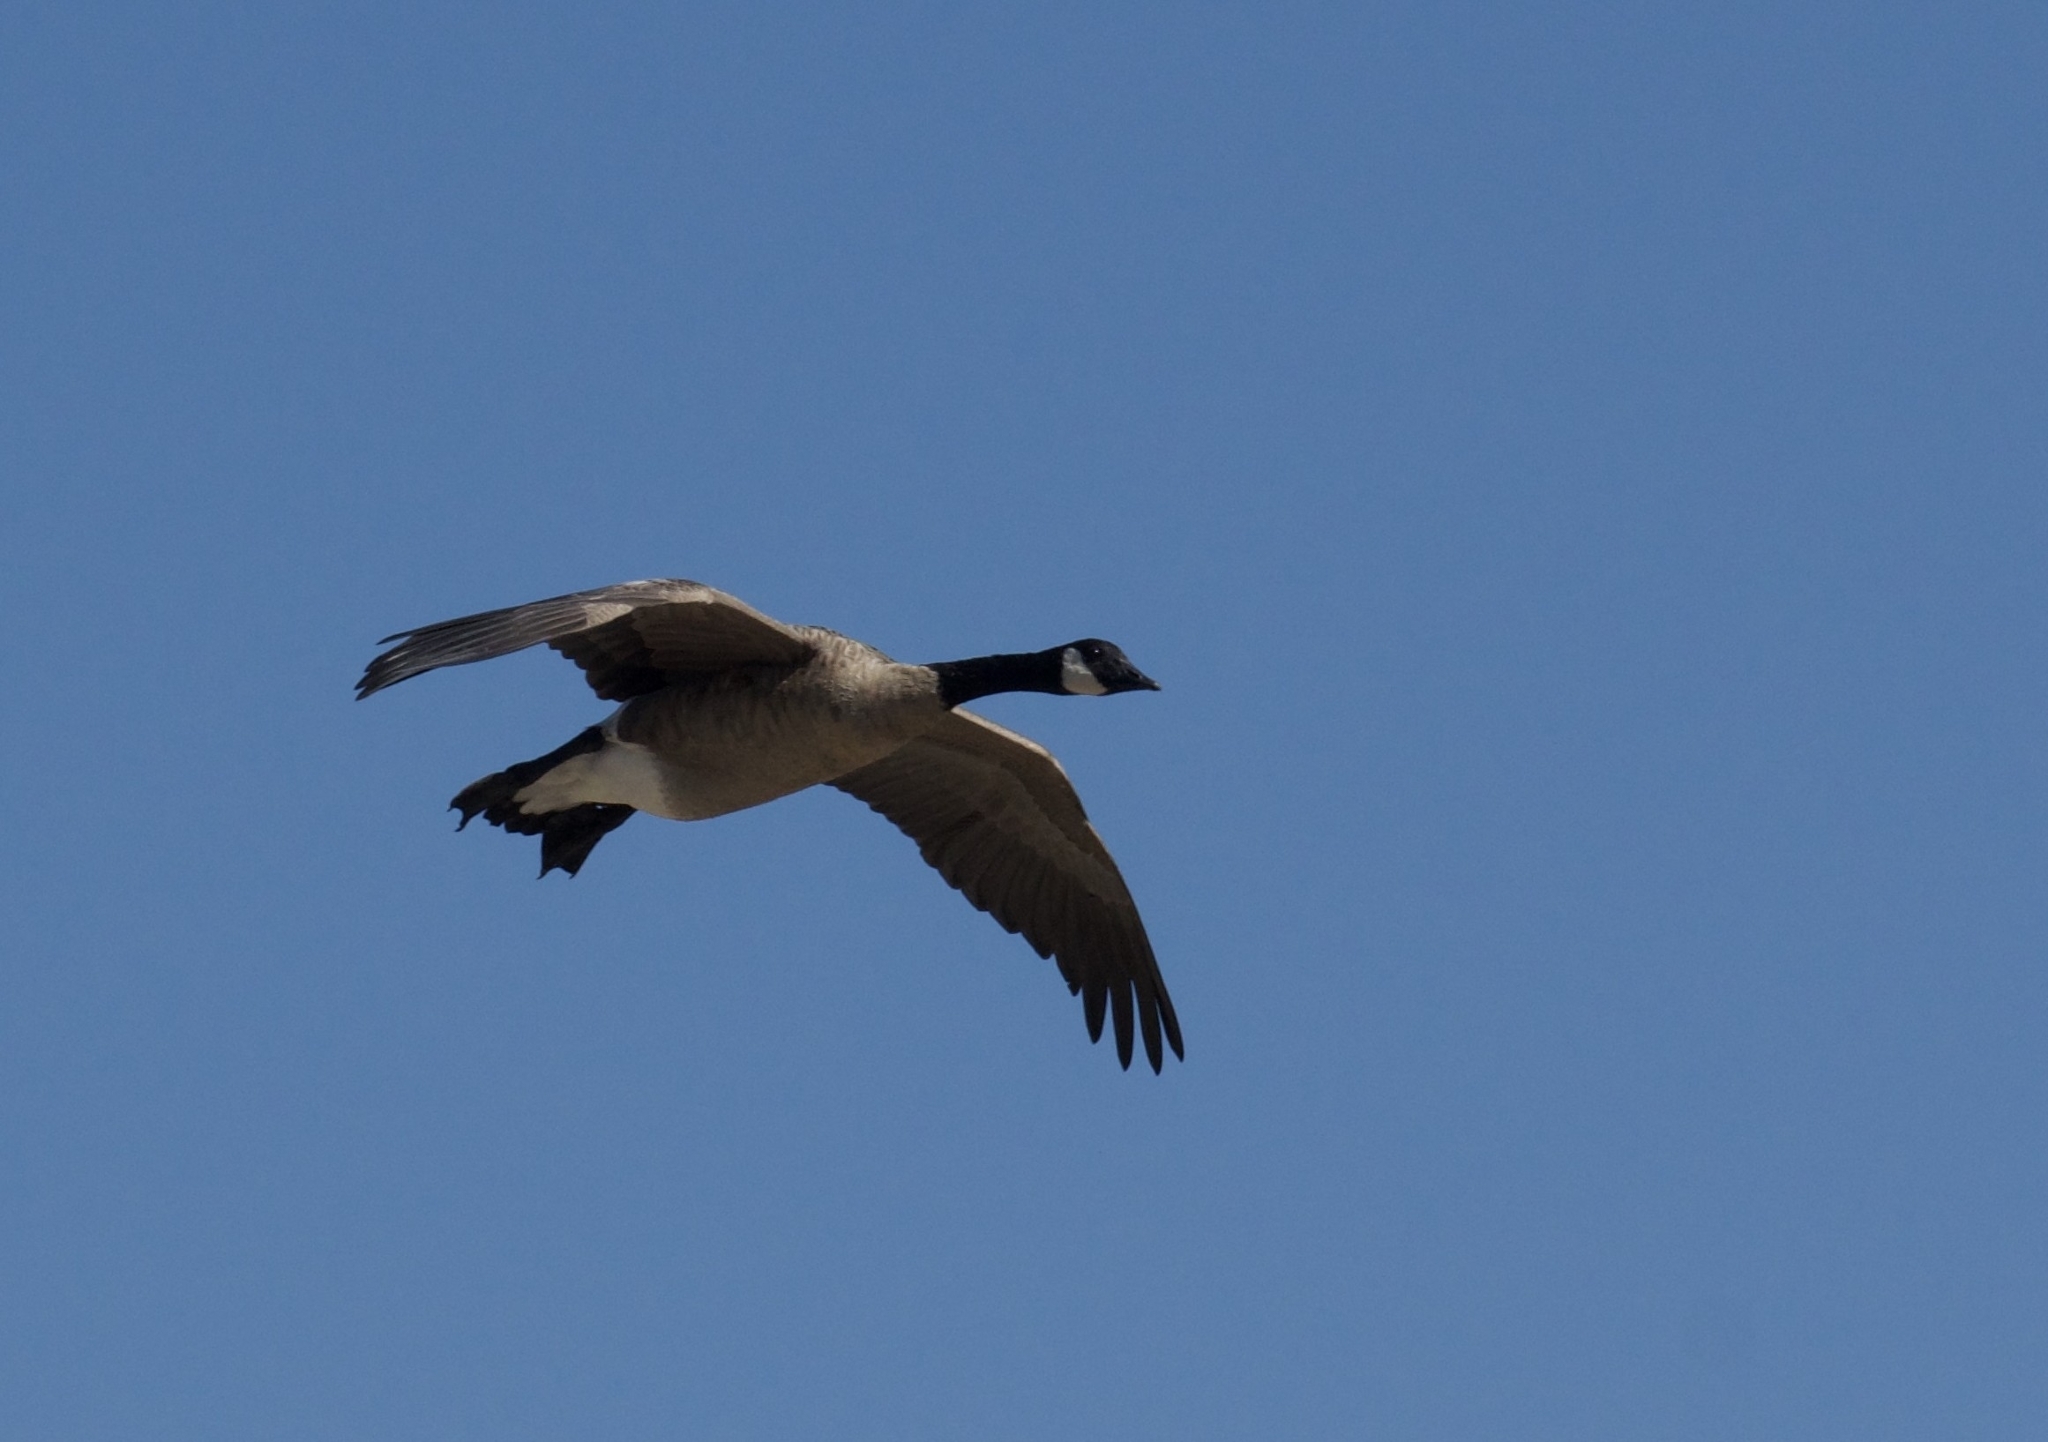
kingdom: Animalia
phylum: Chordata
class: Aves
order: Anseriformes
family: Anatidae
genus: Branta
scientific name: Branta canadensis
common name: Canada goose
